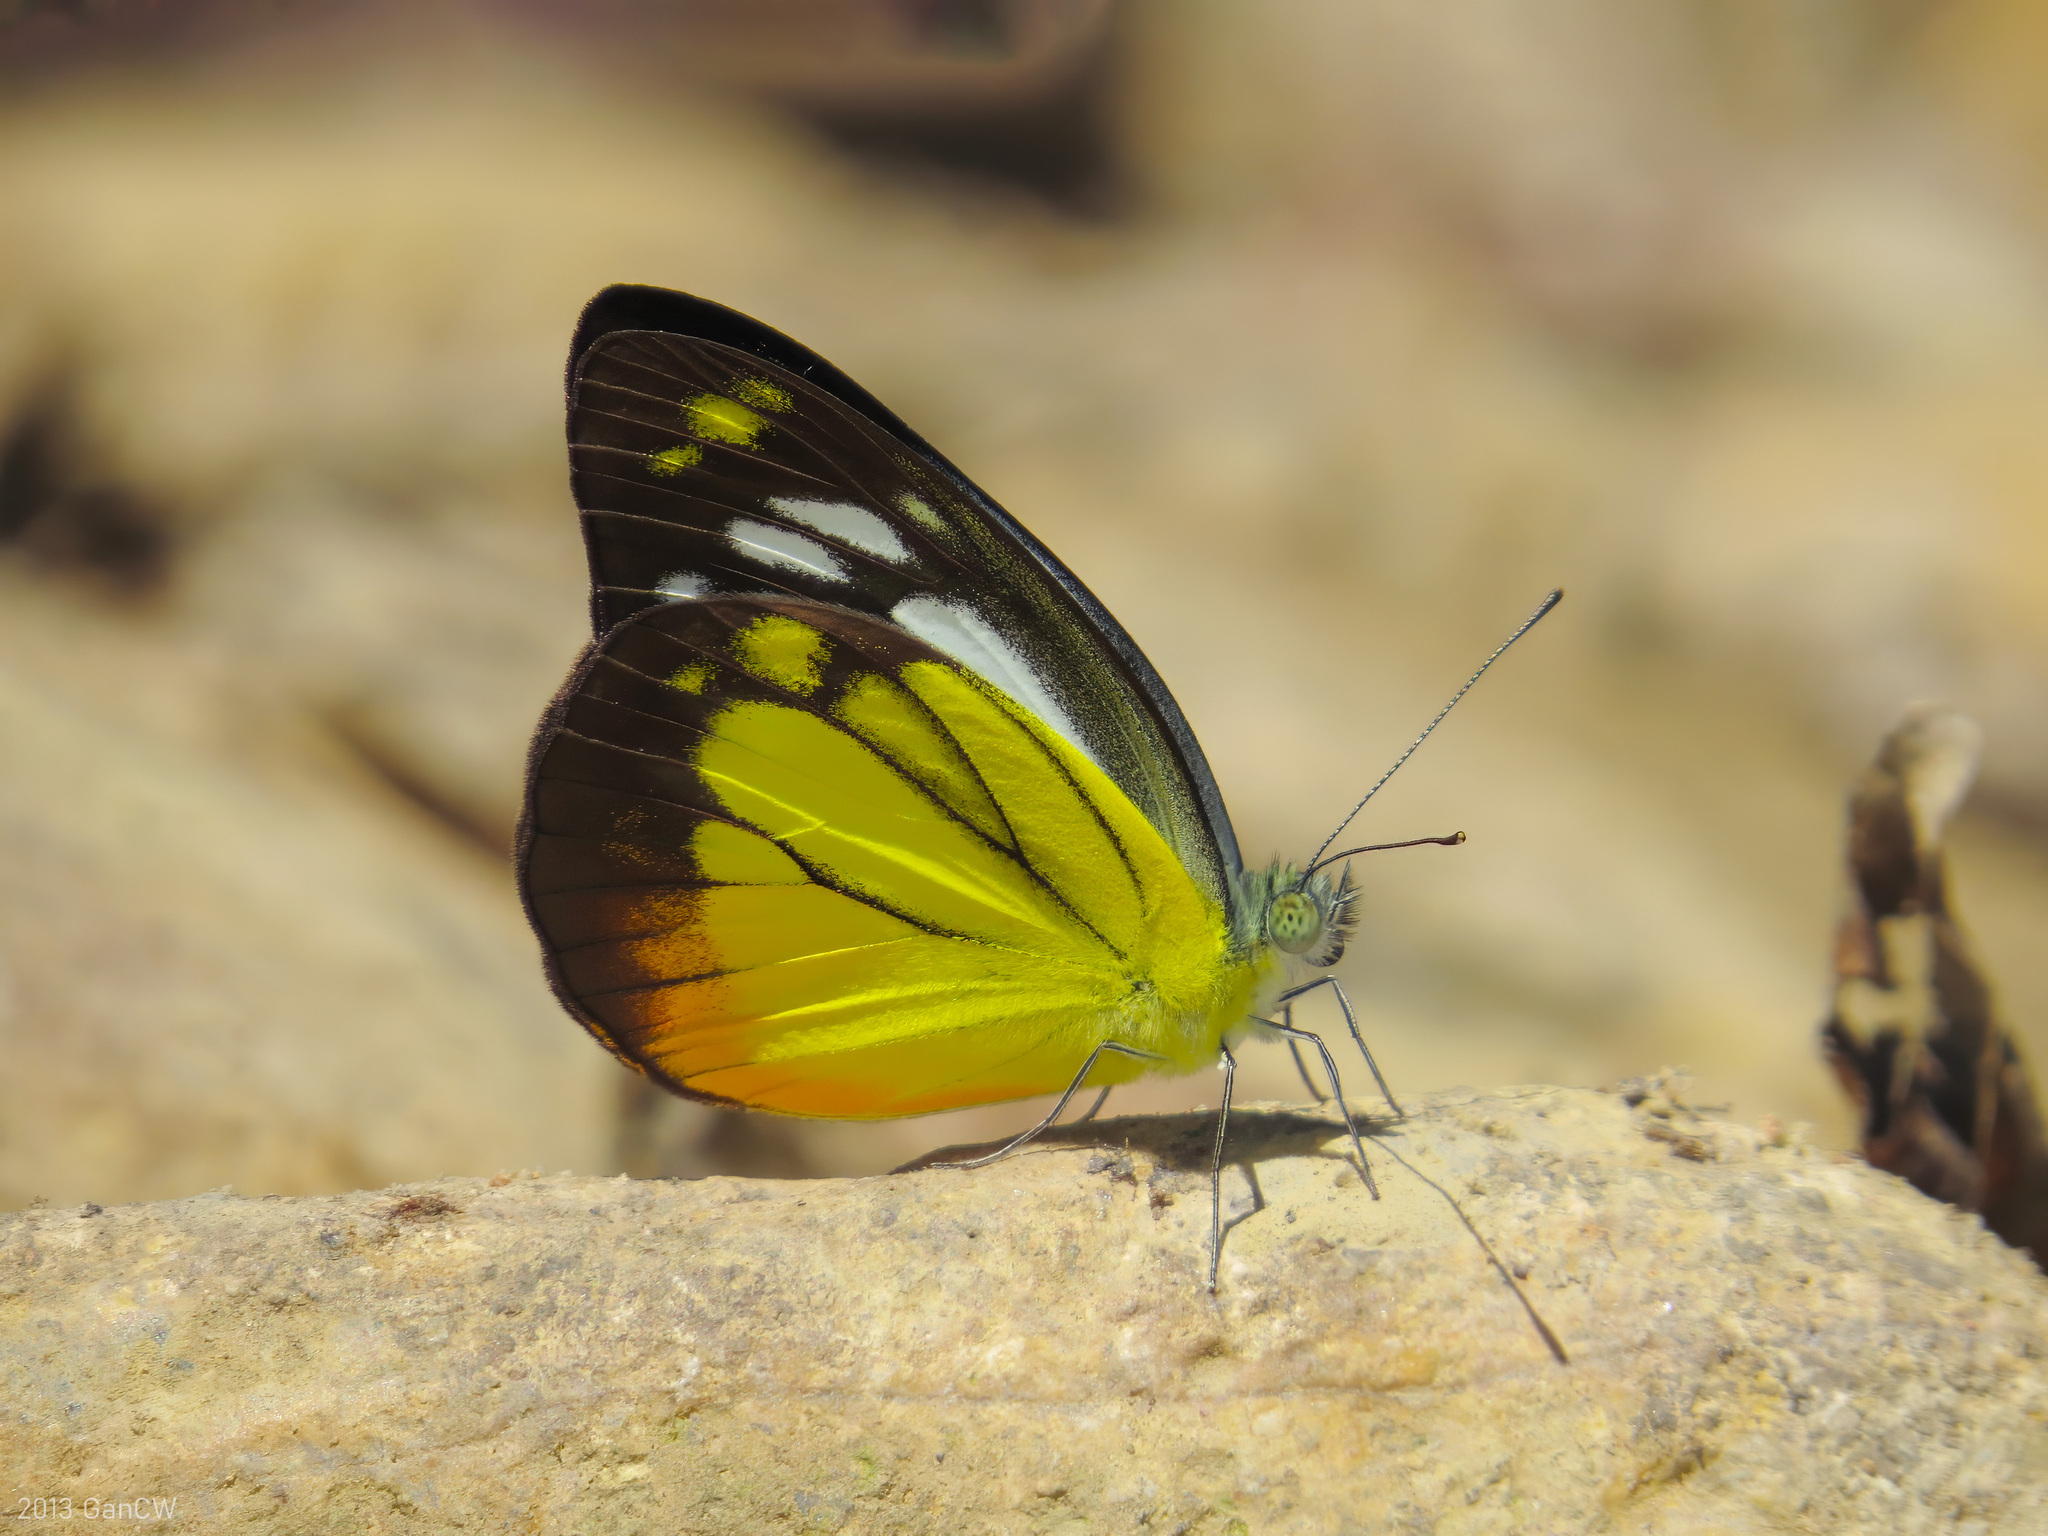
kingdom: Animalia
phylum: Arthropoda
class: Insecta
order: Lepidoptera
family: Pieridae
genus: Cepora
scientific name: Cepora iudith
